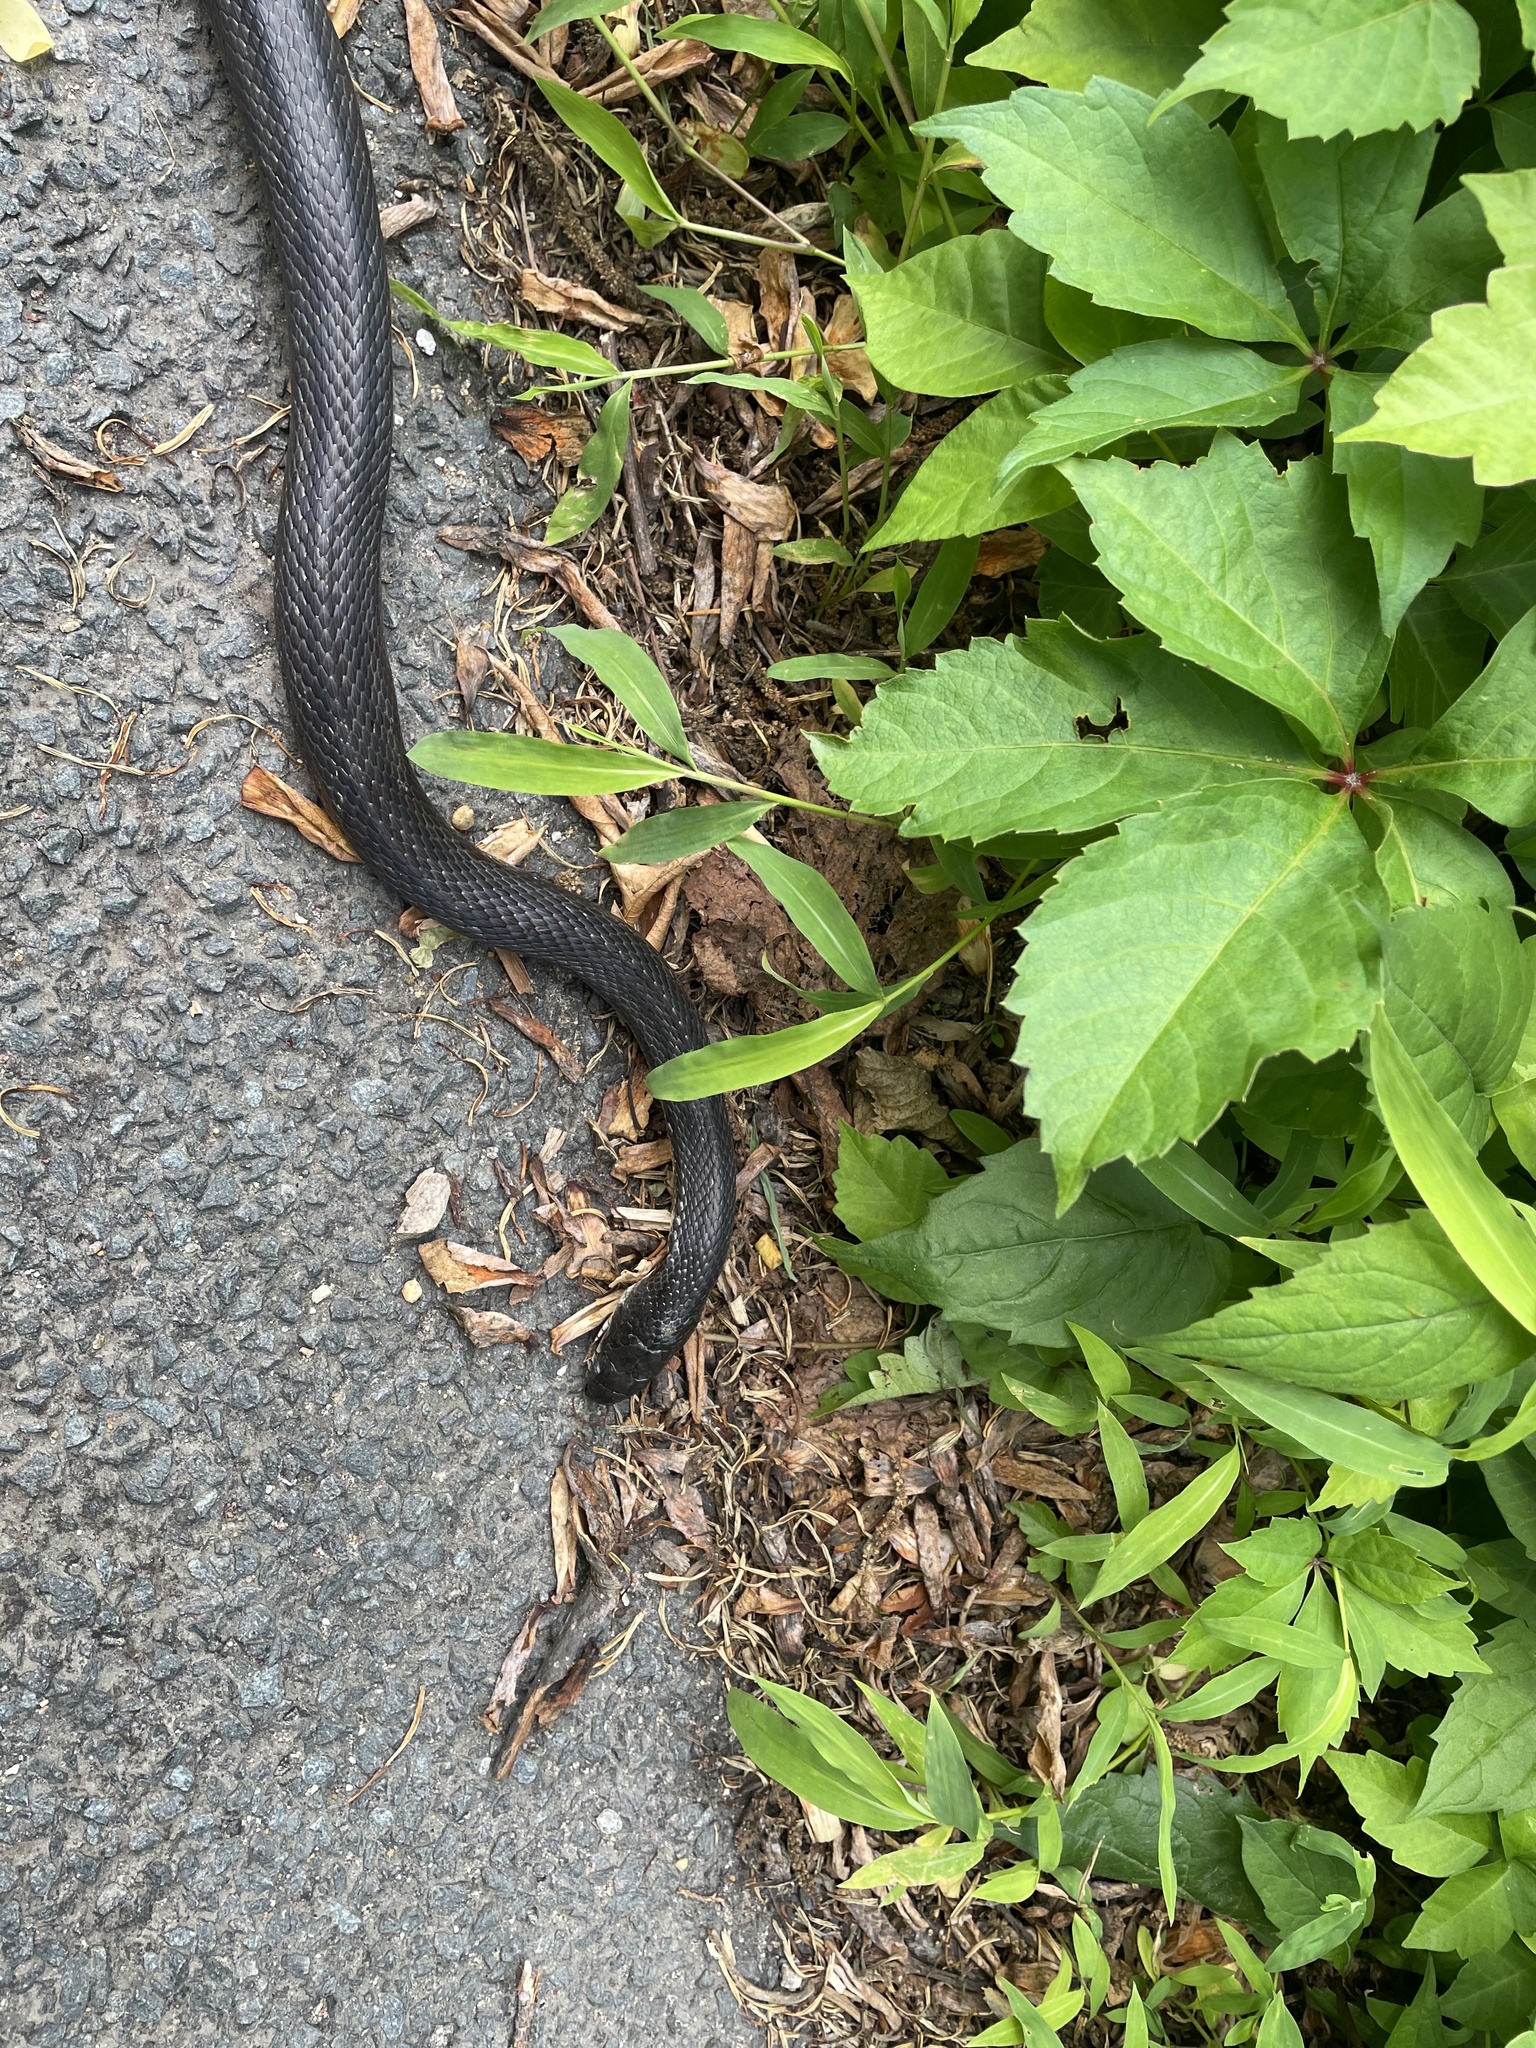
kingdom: Animalia
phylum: Chordata
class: Squamata
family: Colubridae
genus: Pantherophis
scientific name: Pantherophis alleghaniensis
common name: Eastern rat snake
